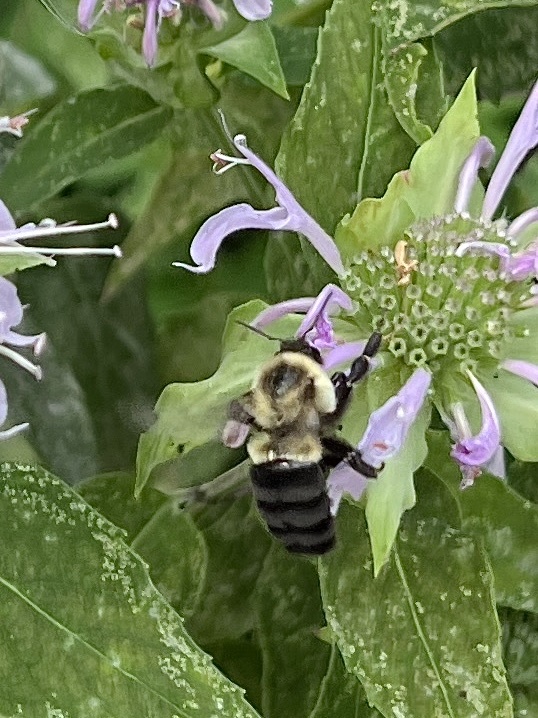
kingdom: Animalia
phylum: Arthropoda
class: Insecta
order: Hymenoptera
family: Apidae
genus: Bombus
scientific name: Bombus impatiens
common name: Common eastern bumble bee
